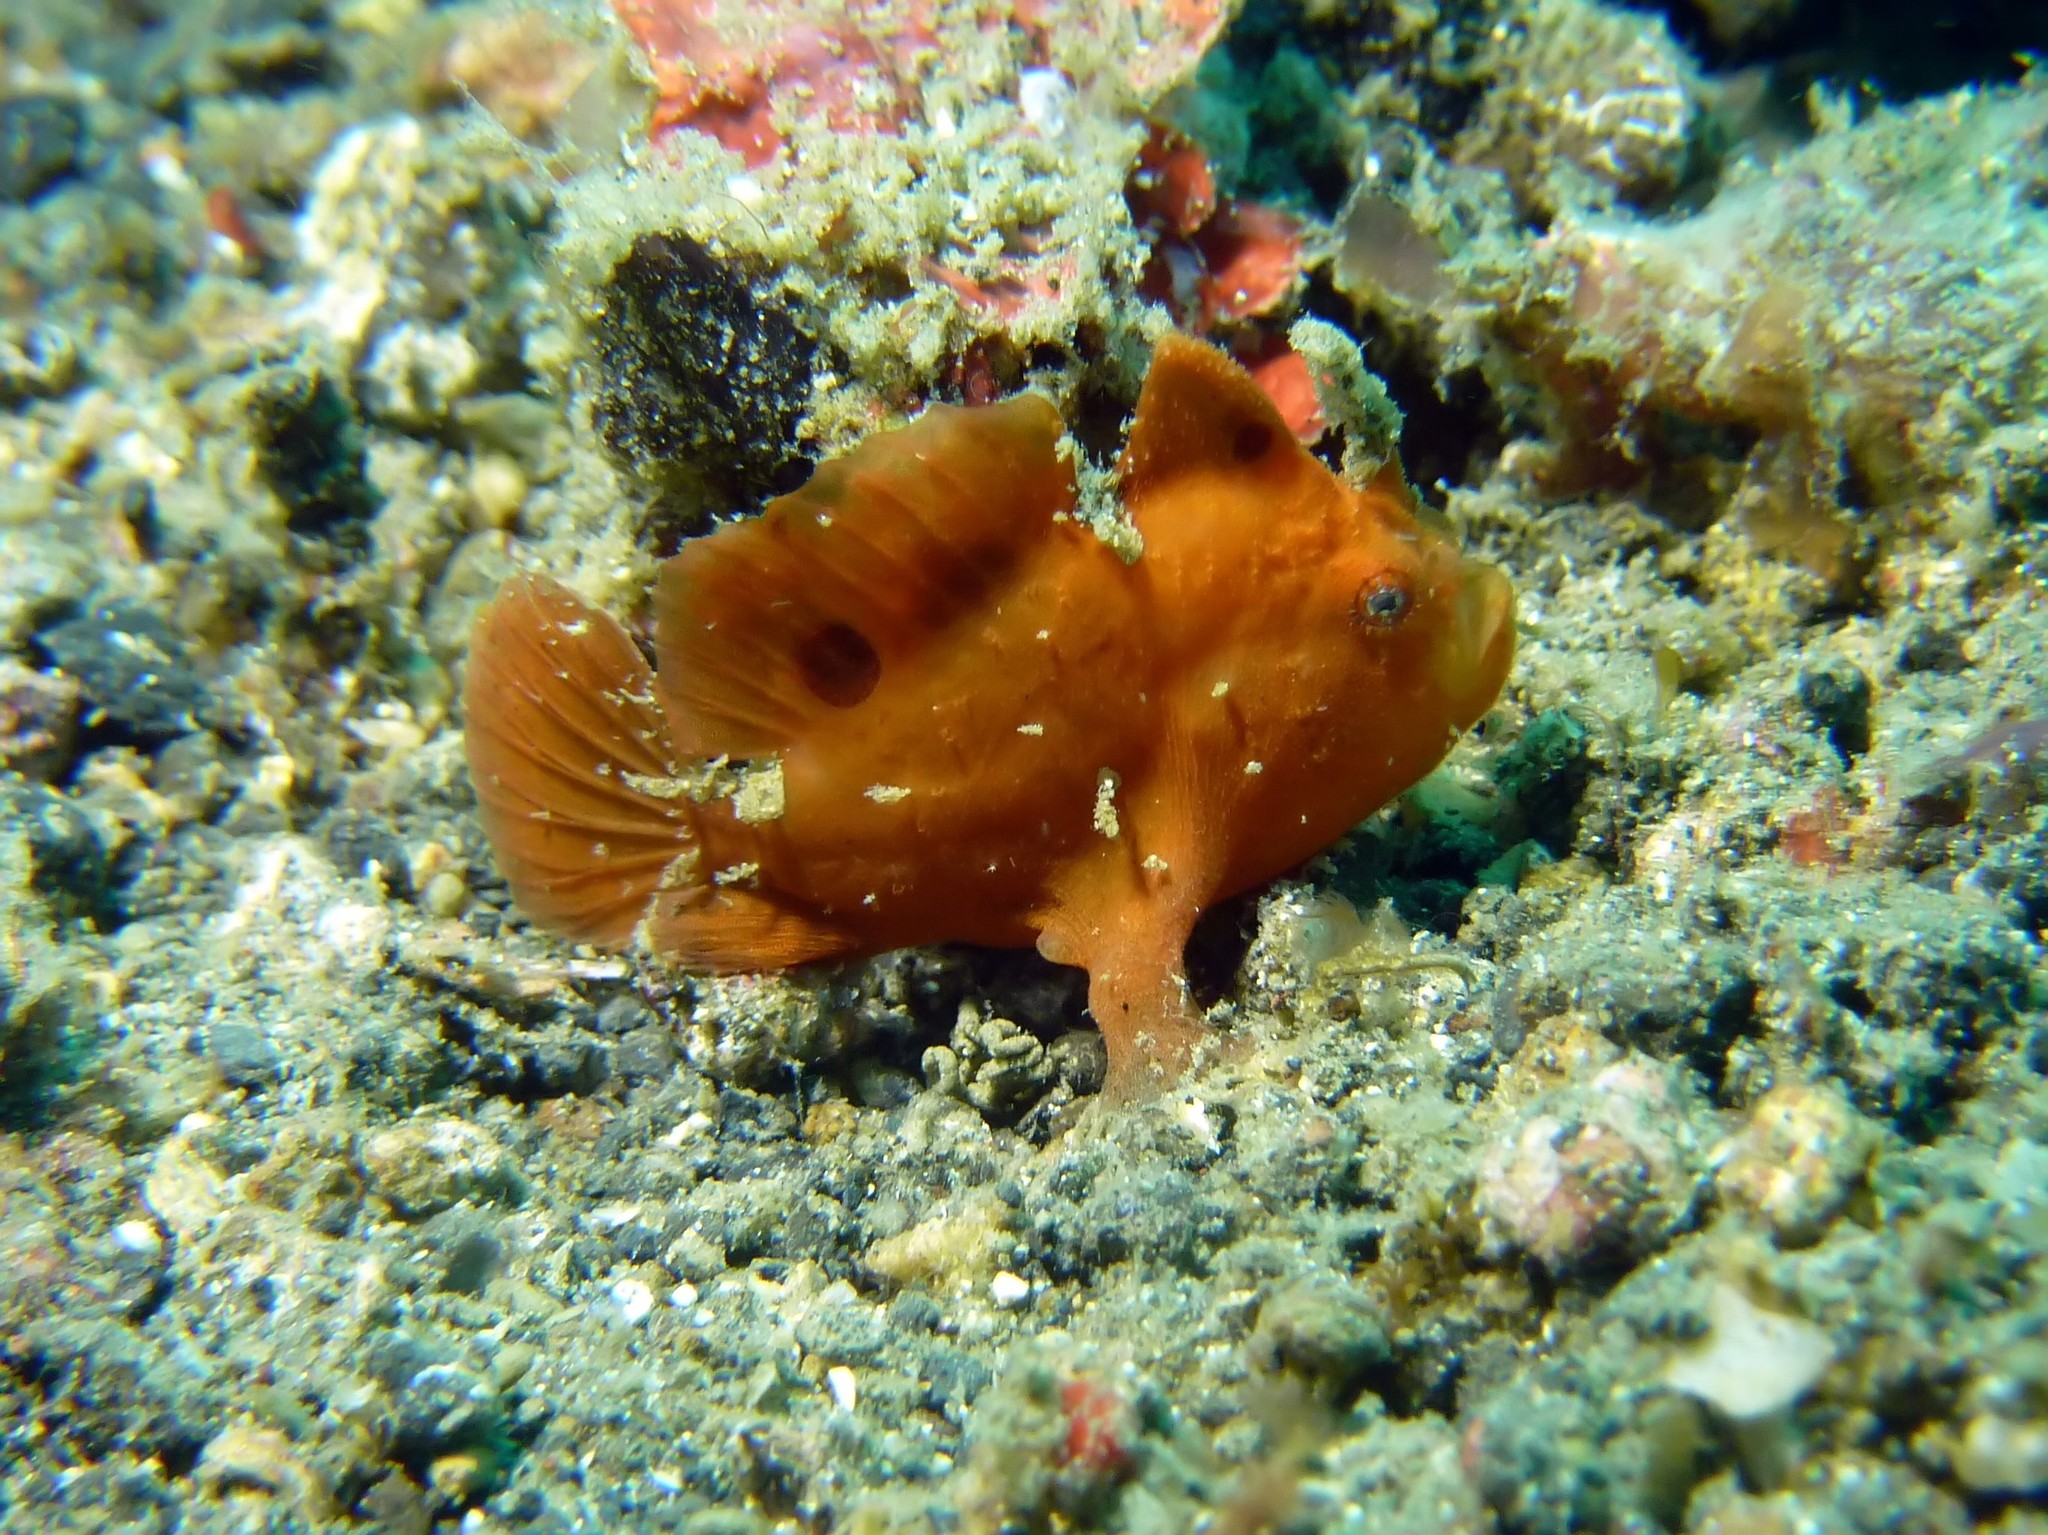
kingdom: Animalia
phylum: Chordata
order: Lophiiformes
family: Antennariidae
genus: Antennarius
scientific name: Antennarius pictus
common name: Painted frogfish
